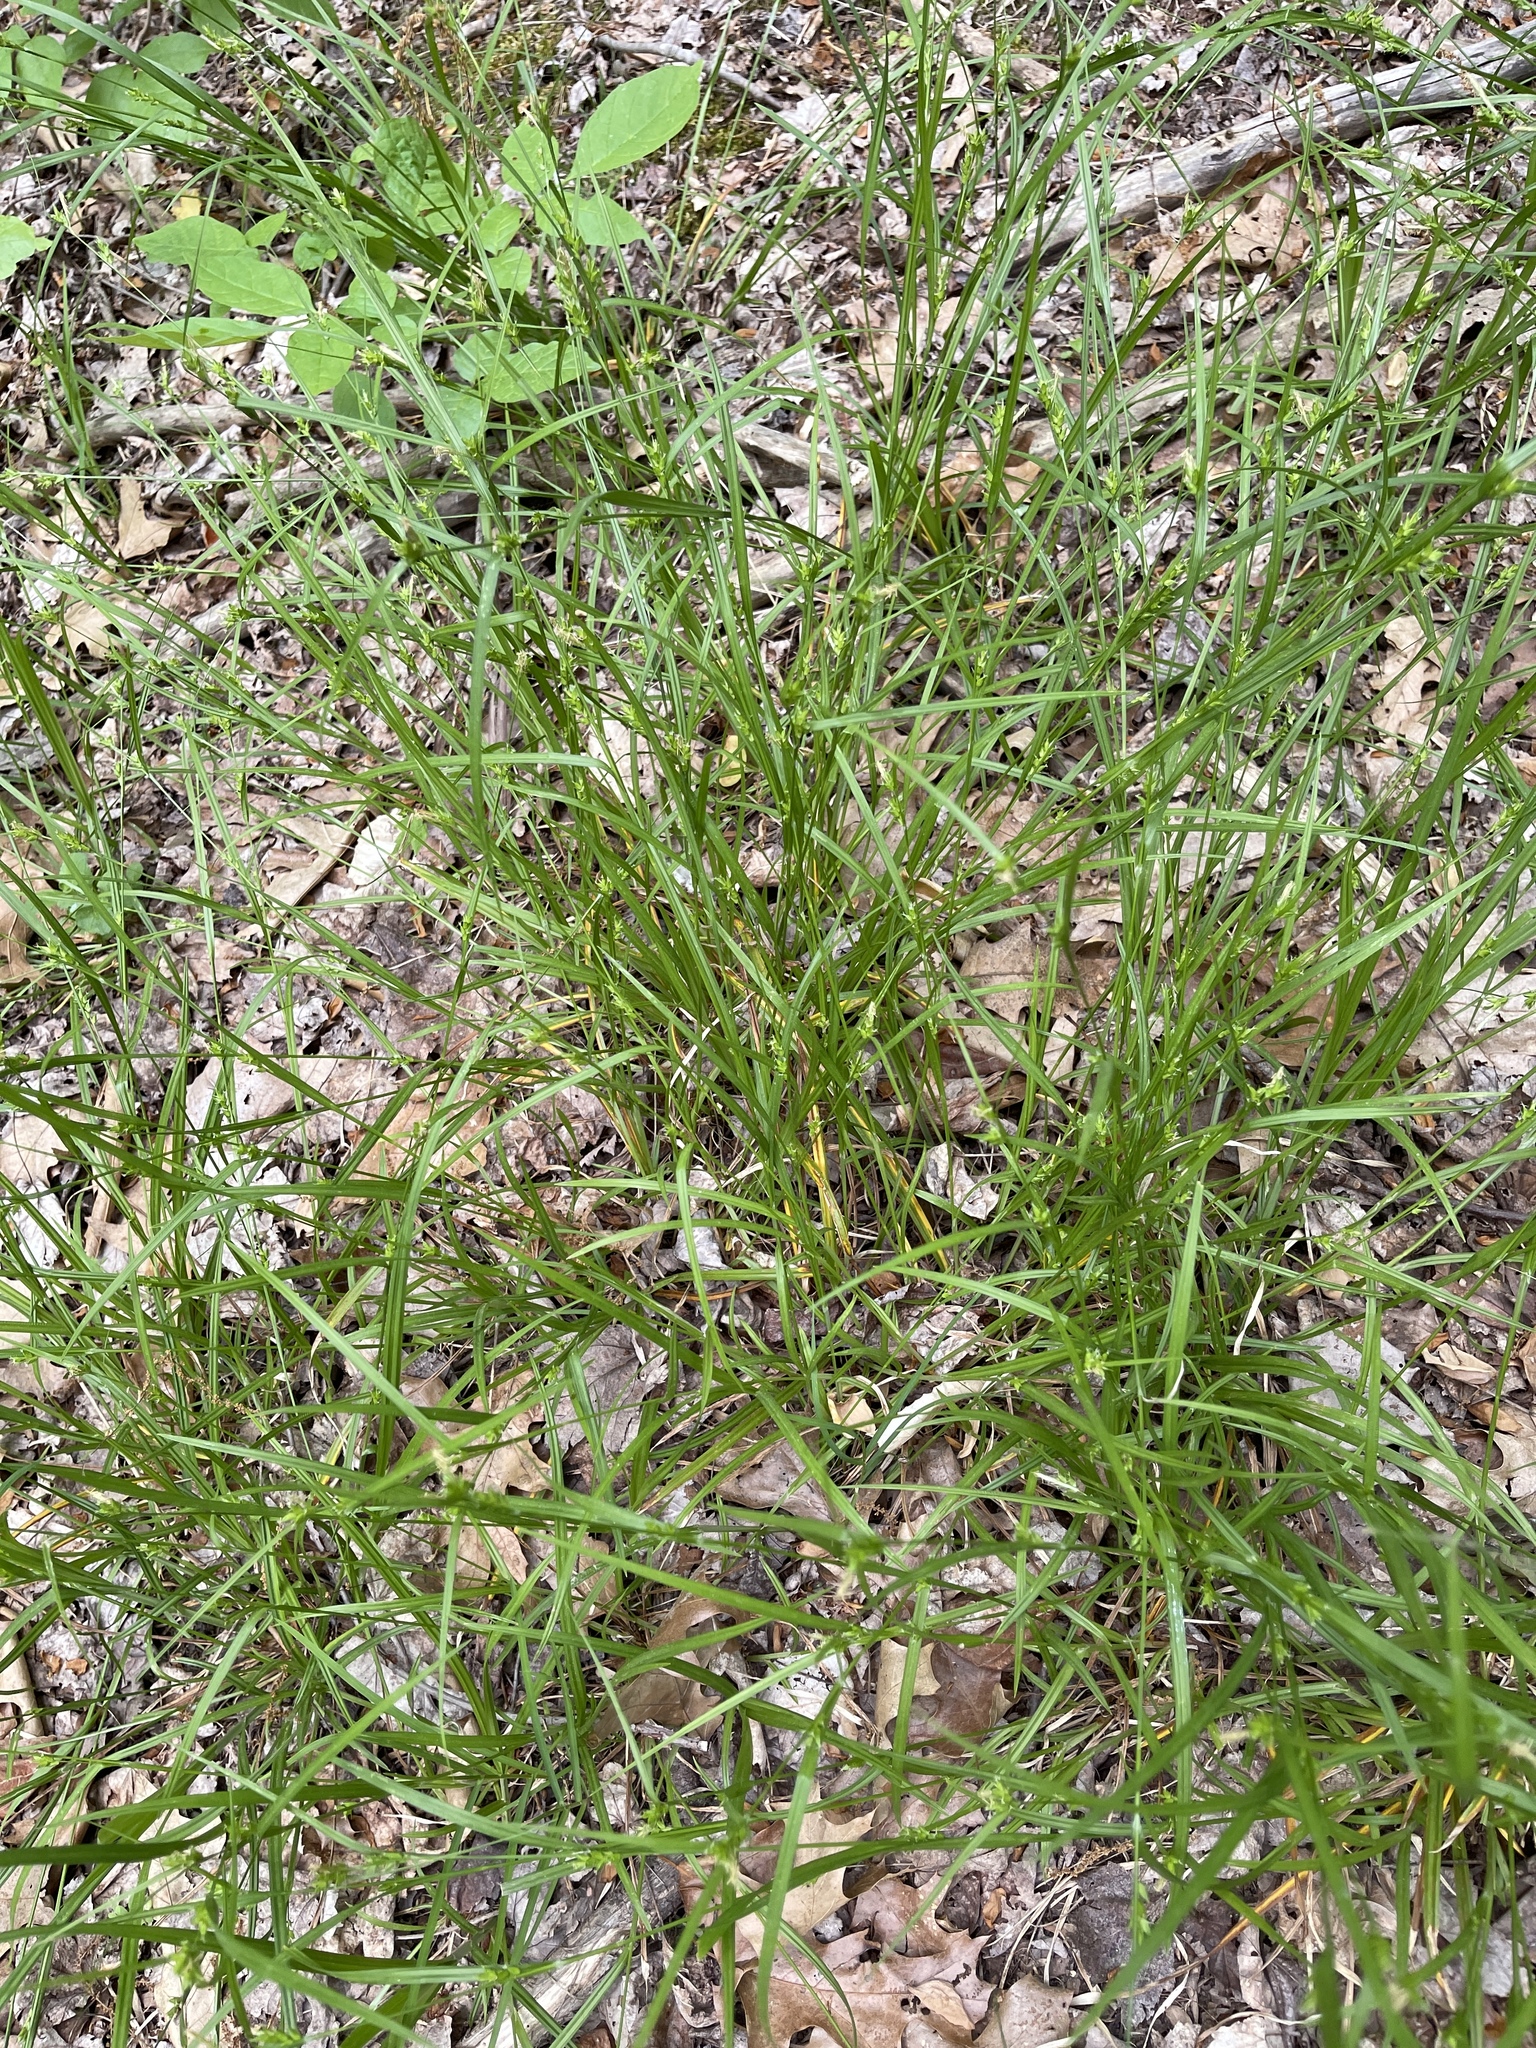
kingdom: Plantae
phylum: Tracheophyta
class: Liliopsida
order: Poales
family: Cyperaceae
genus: Carex
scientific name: Carex amphibola
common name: Amphibious sedge
